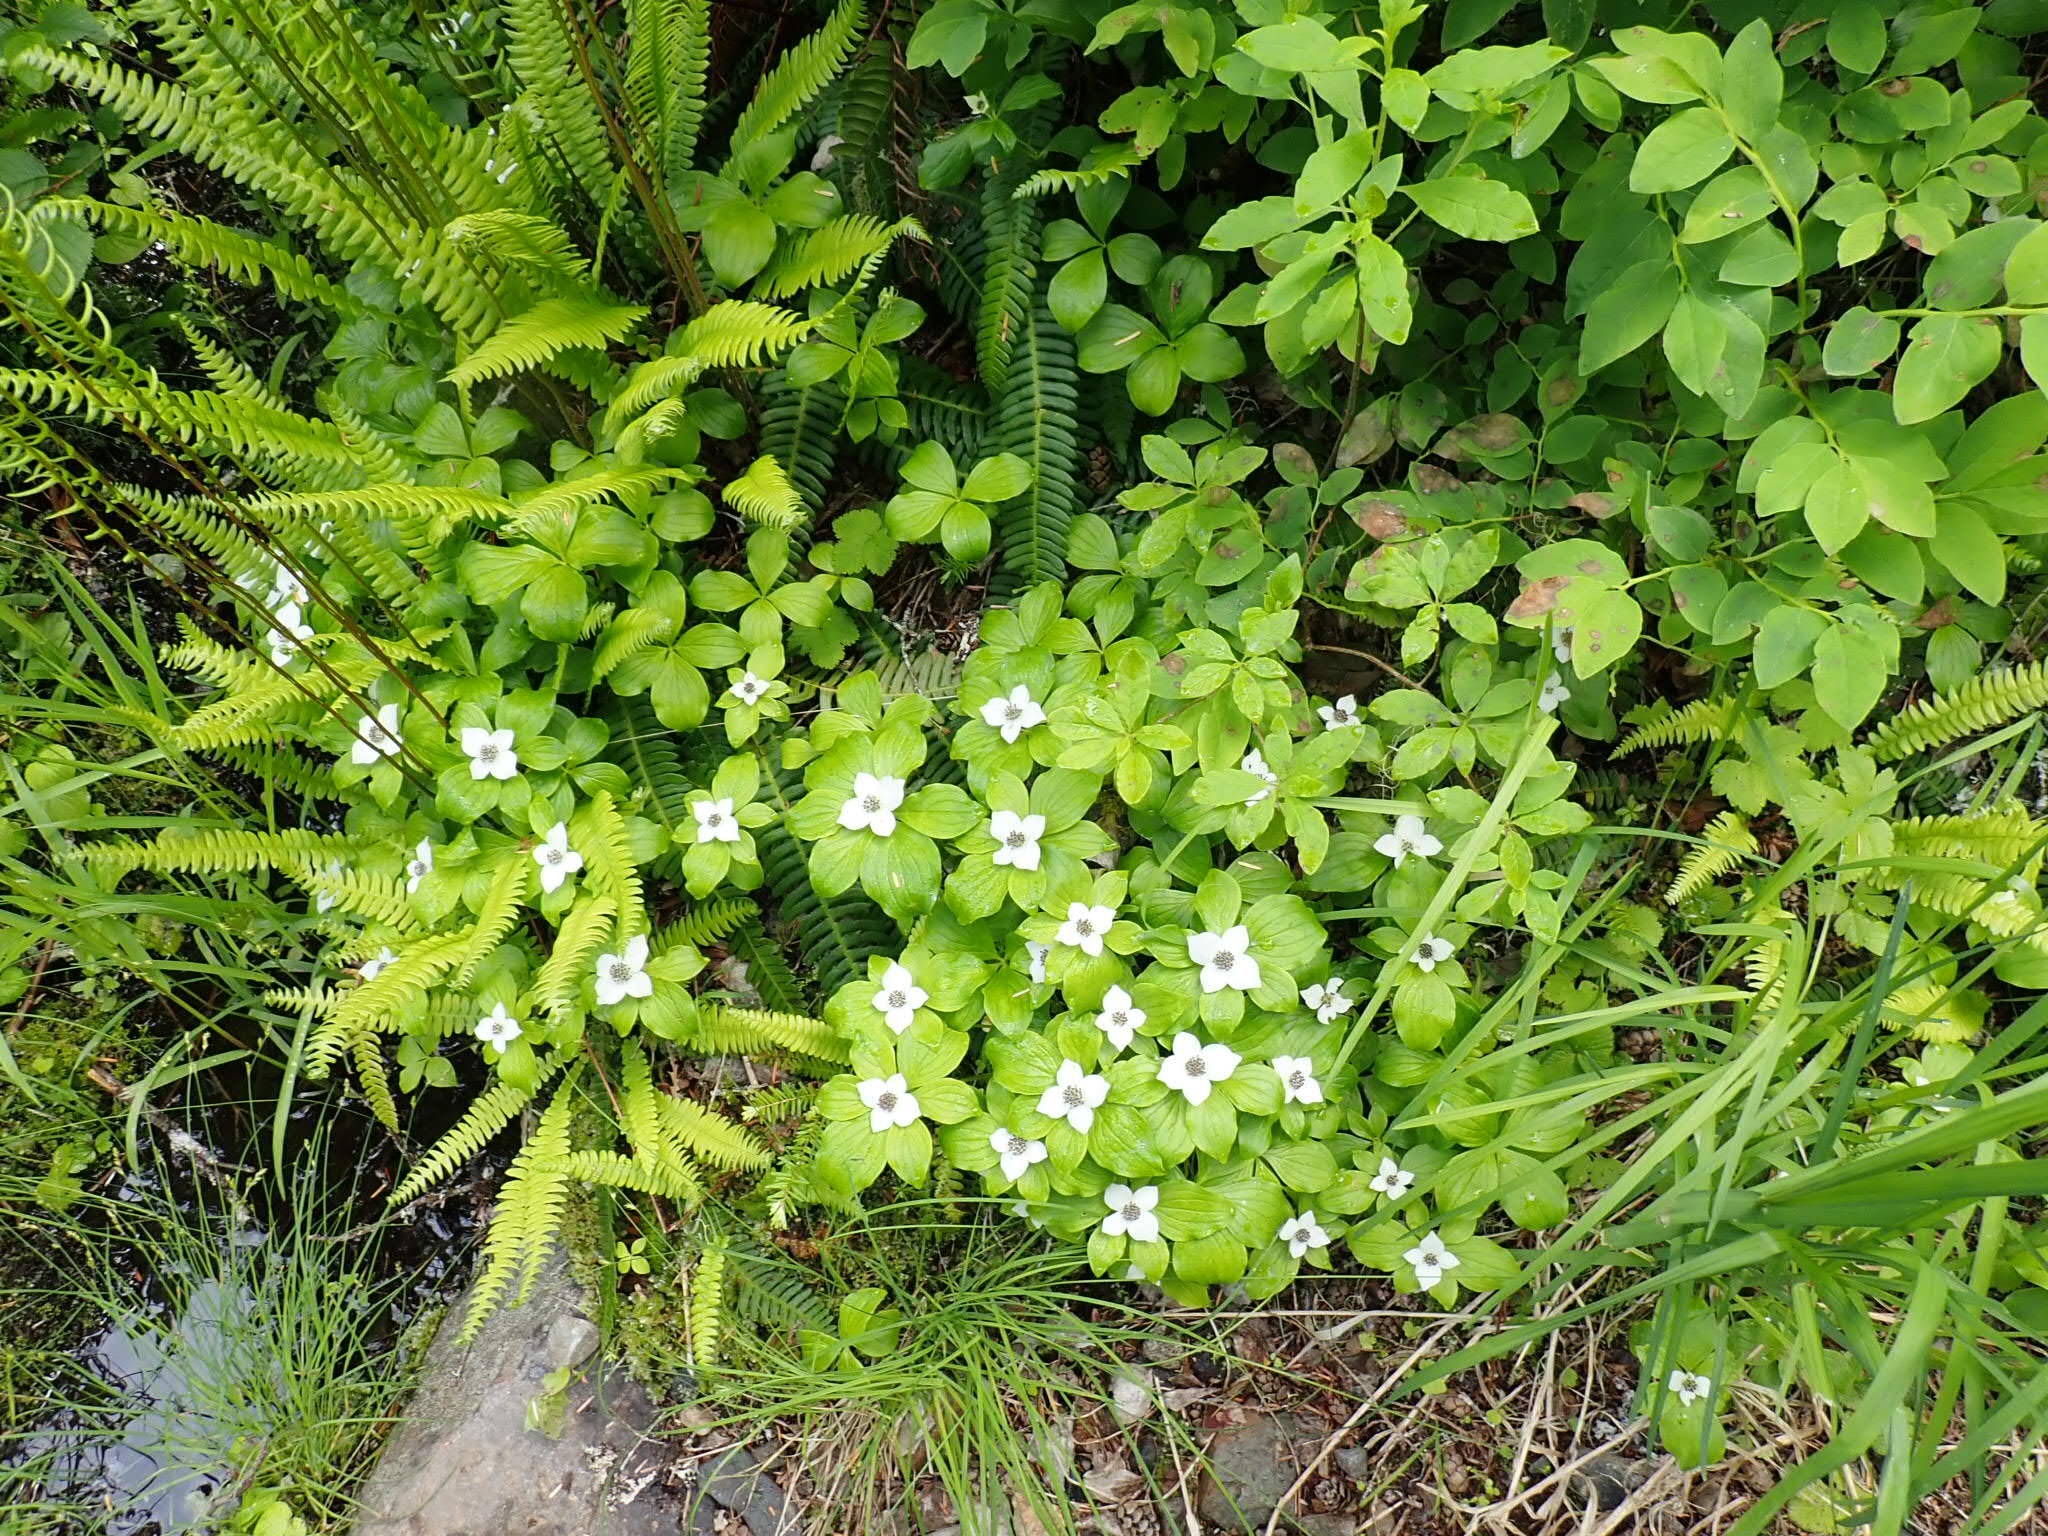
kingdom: Plantae
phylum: Tracheophyta
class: Magnoliopsida
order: Cornales
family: Cornaceae
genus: Cornus
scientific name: Cornus unalaschkensis
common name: Alaska bunchberry
